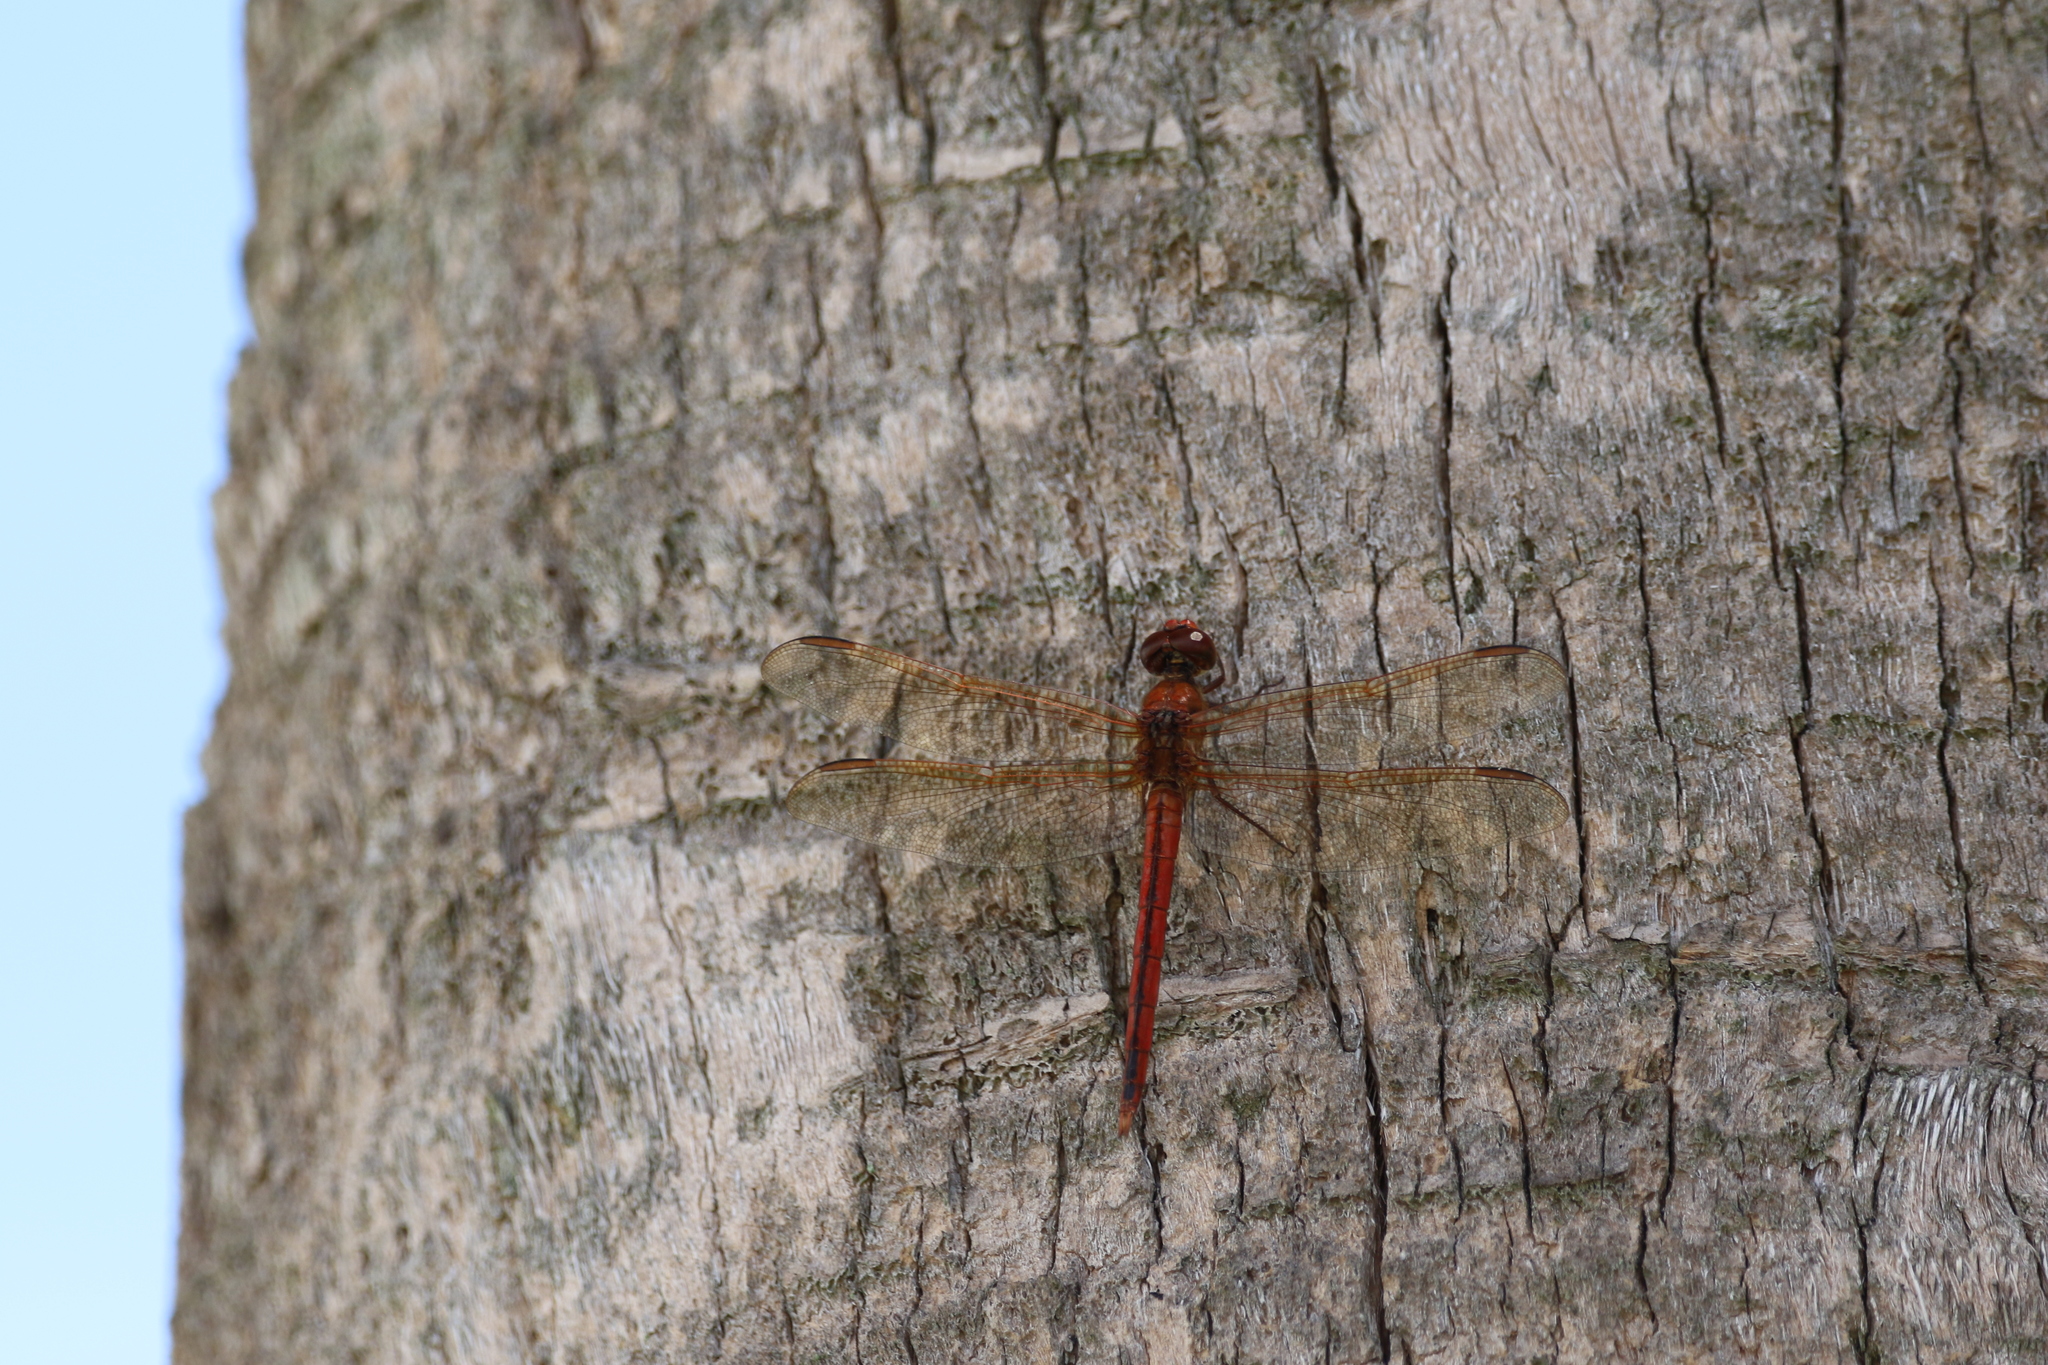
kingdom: Animalia
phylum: Arthropoda
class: Insecta
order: Odonata
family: Libellulidae
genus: Libellula
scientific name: Libellula needhami
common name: Needham's skimmer
